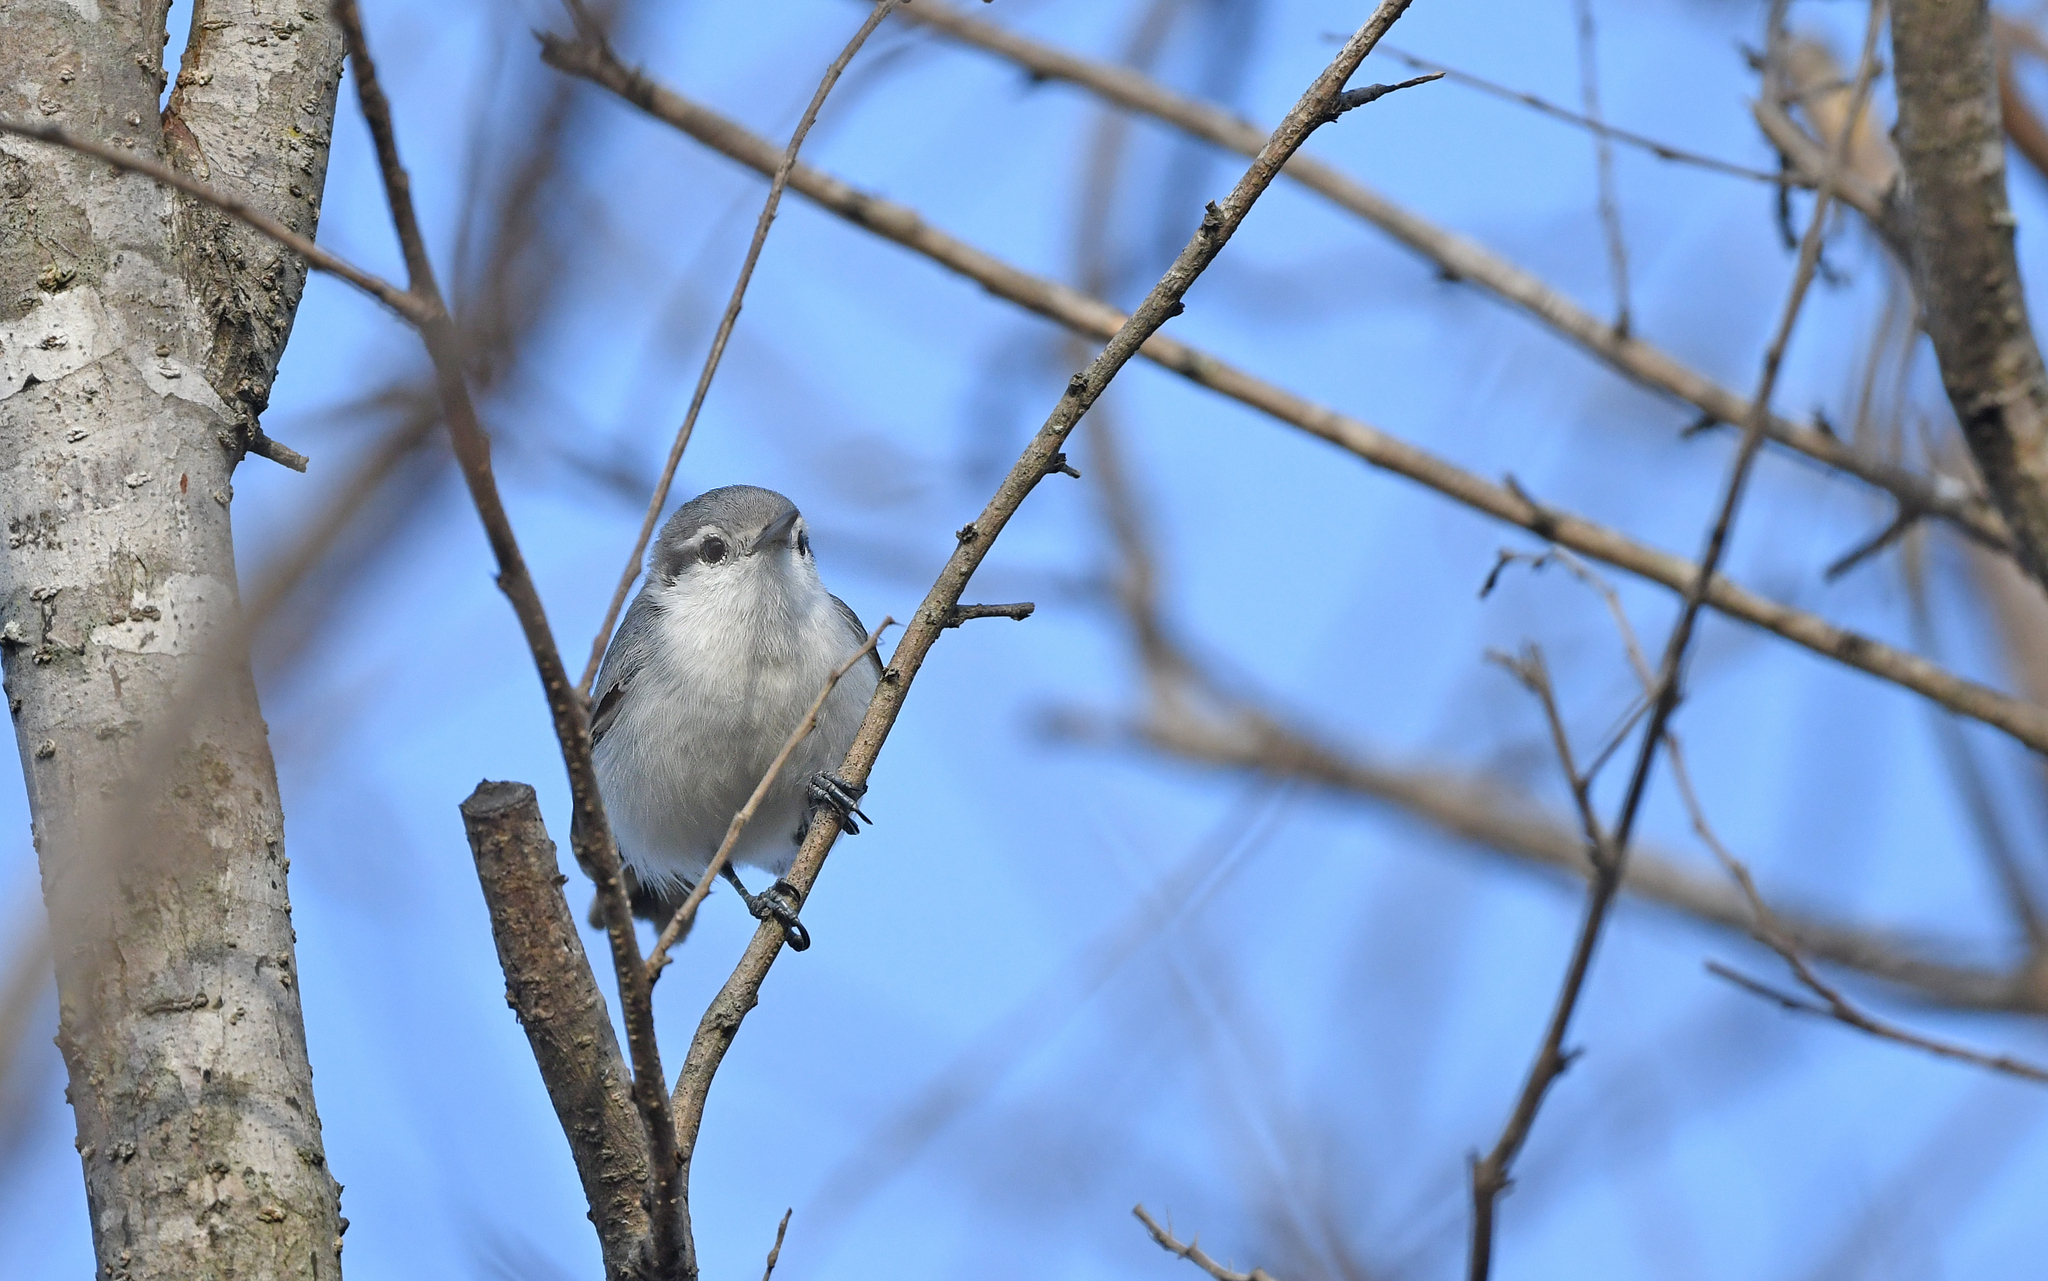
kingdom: Animalia
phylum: Chordata
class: Aves
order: Passeriformes
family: Polioptilidae
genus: Polioptila
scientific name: Polioptila plumbea
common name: Tropical gnatcatcher
